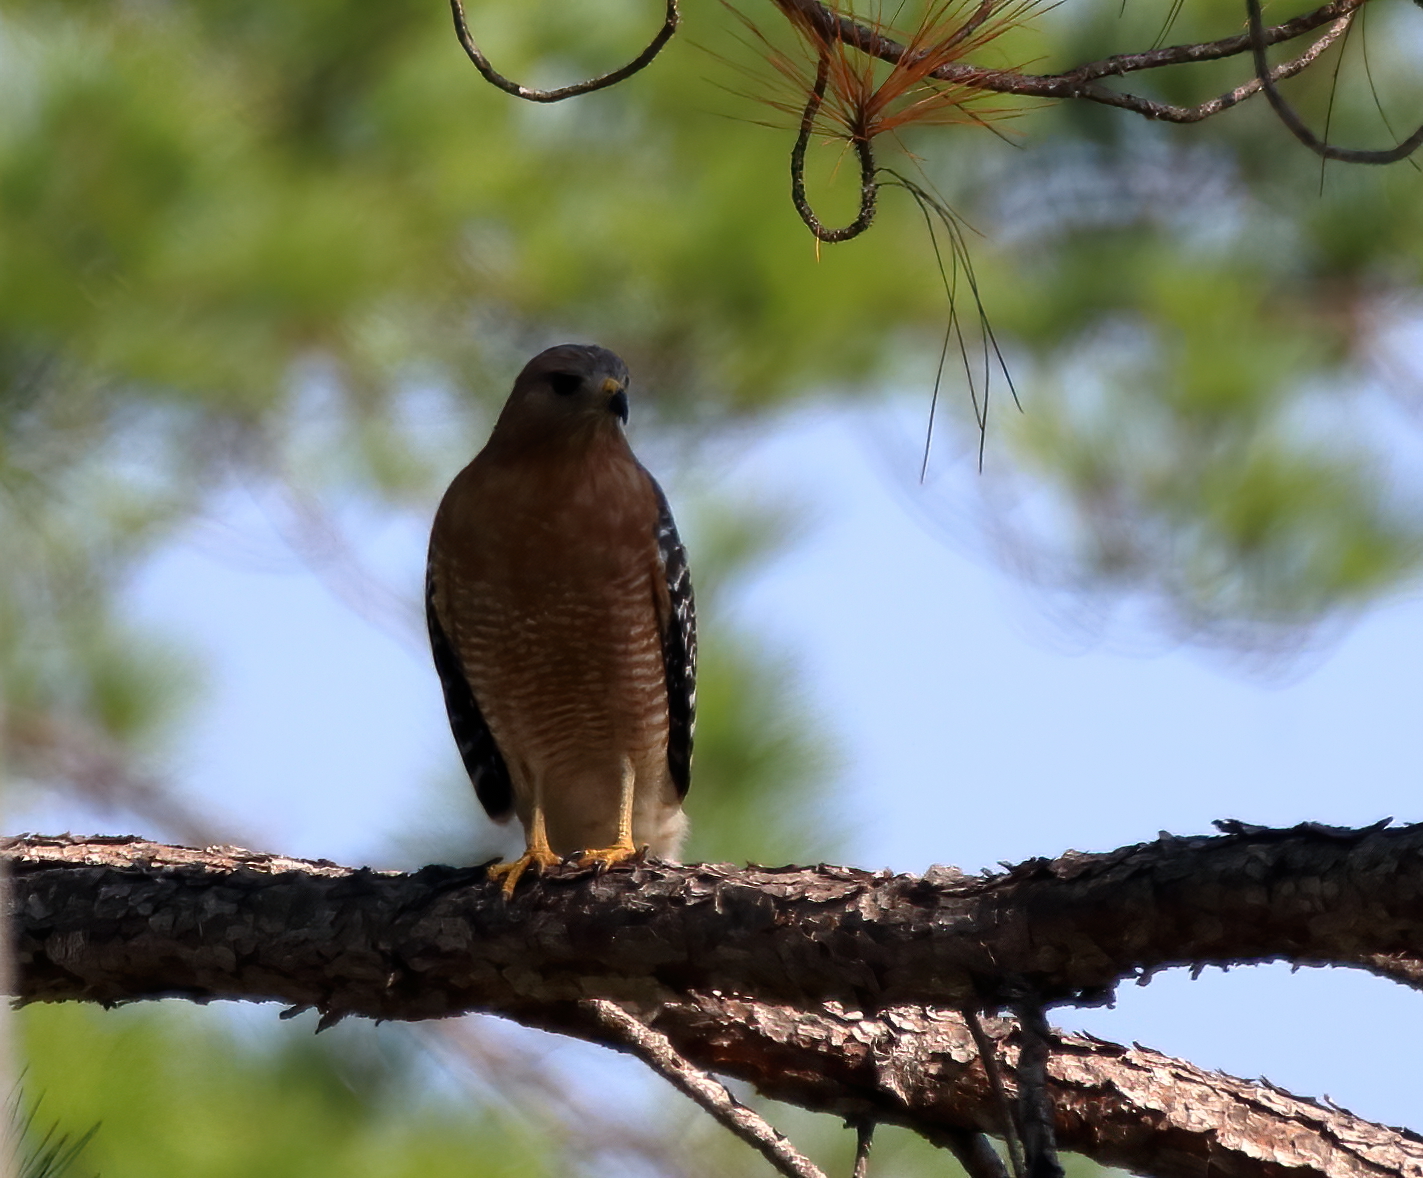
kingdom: Animalia
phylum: Chordata
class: Aves
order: Accipitriformes
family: Accipitridae
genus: Buteo
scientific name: Buteo lineatus
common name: Red-shouldered hawk
